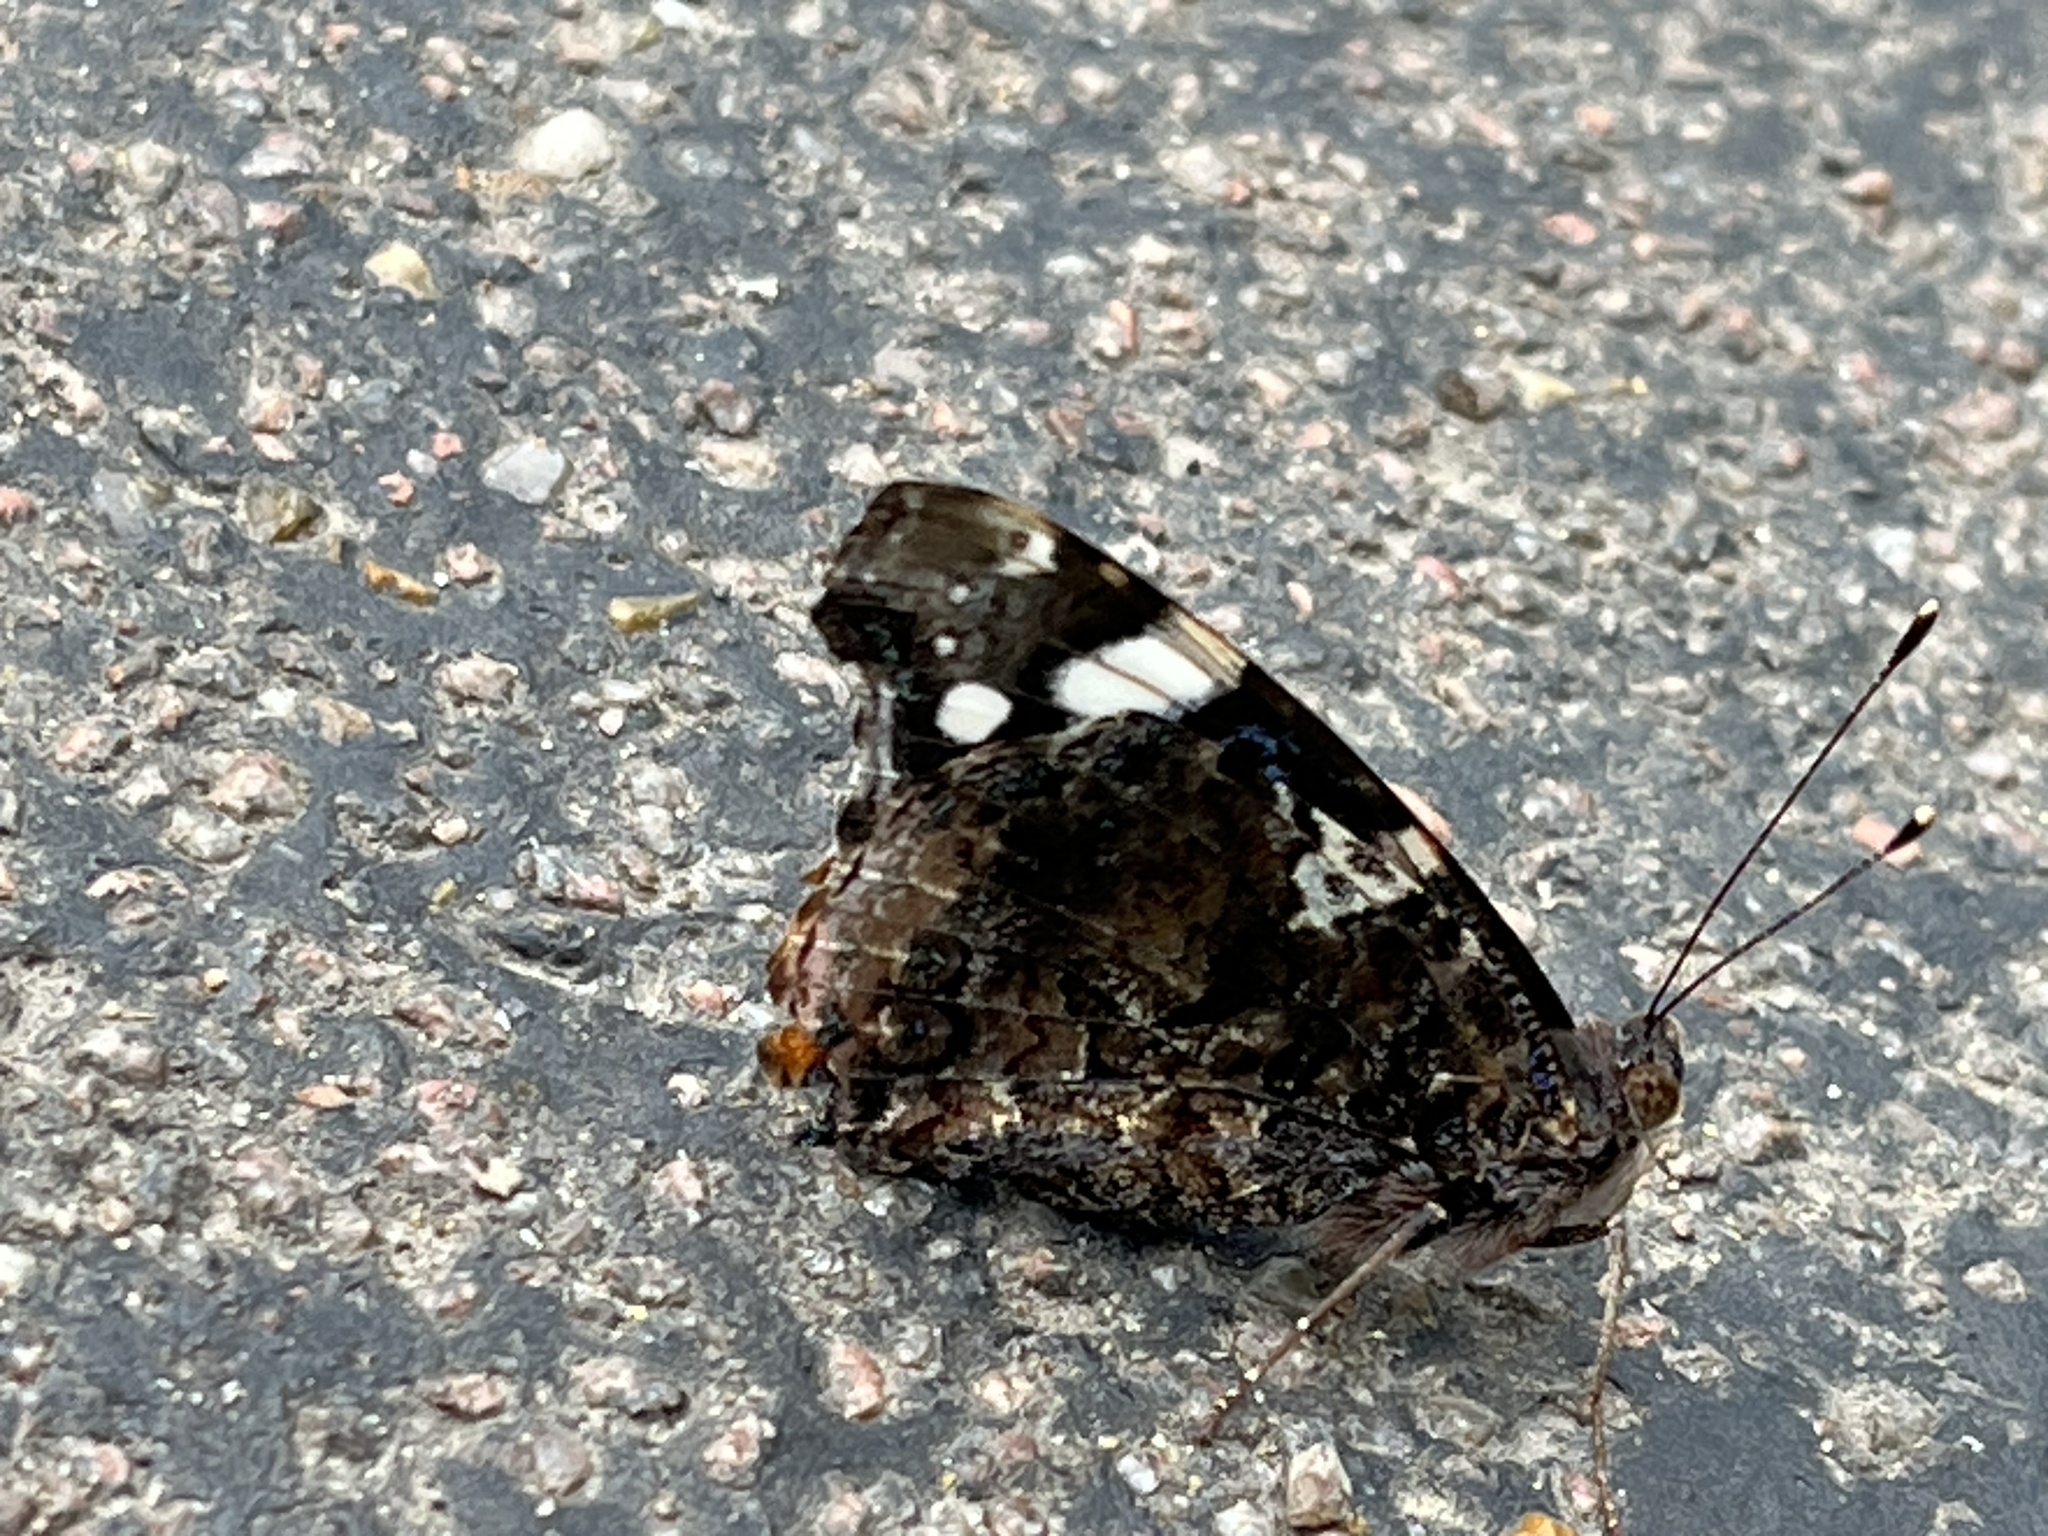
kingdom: Animalia
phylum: Arthropoda
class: Insecta
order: Lepidoptera
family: Nymphalidae
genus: Vanessa
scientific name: Vanessa atalanta
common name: Red admiral
